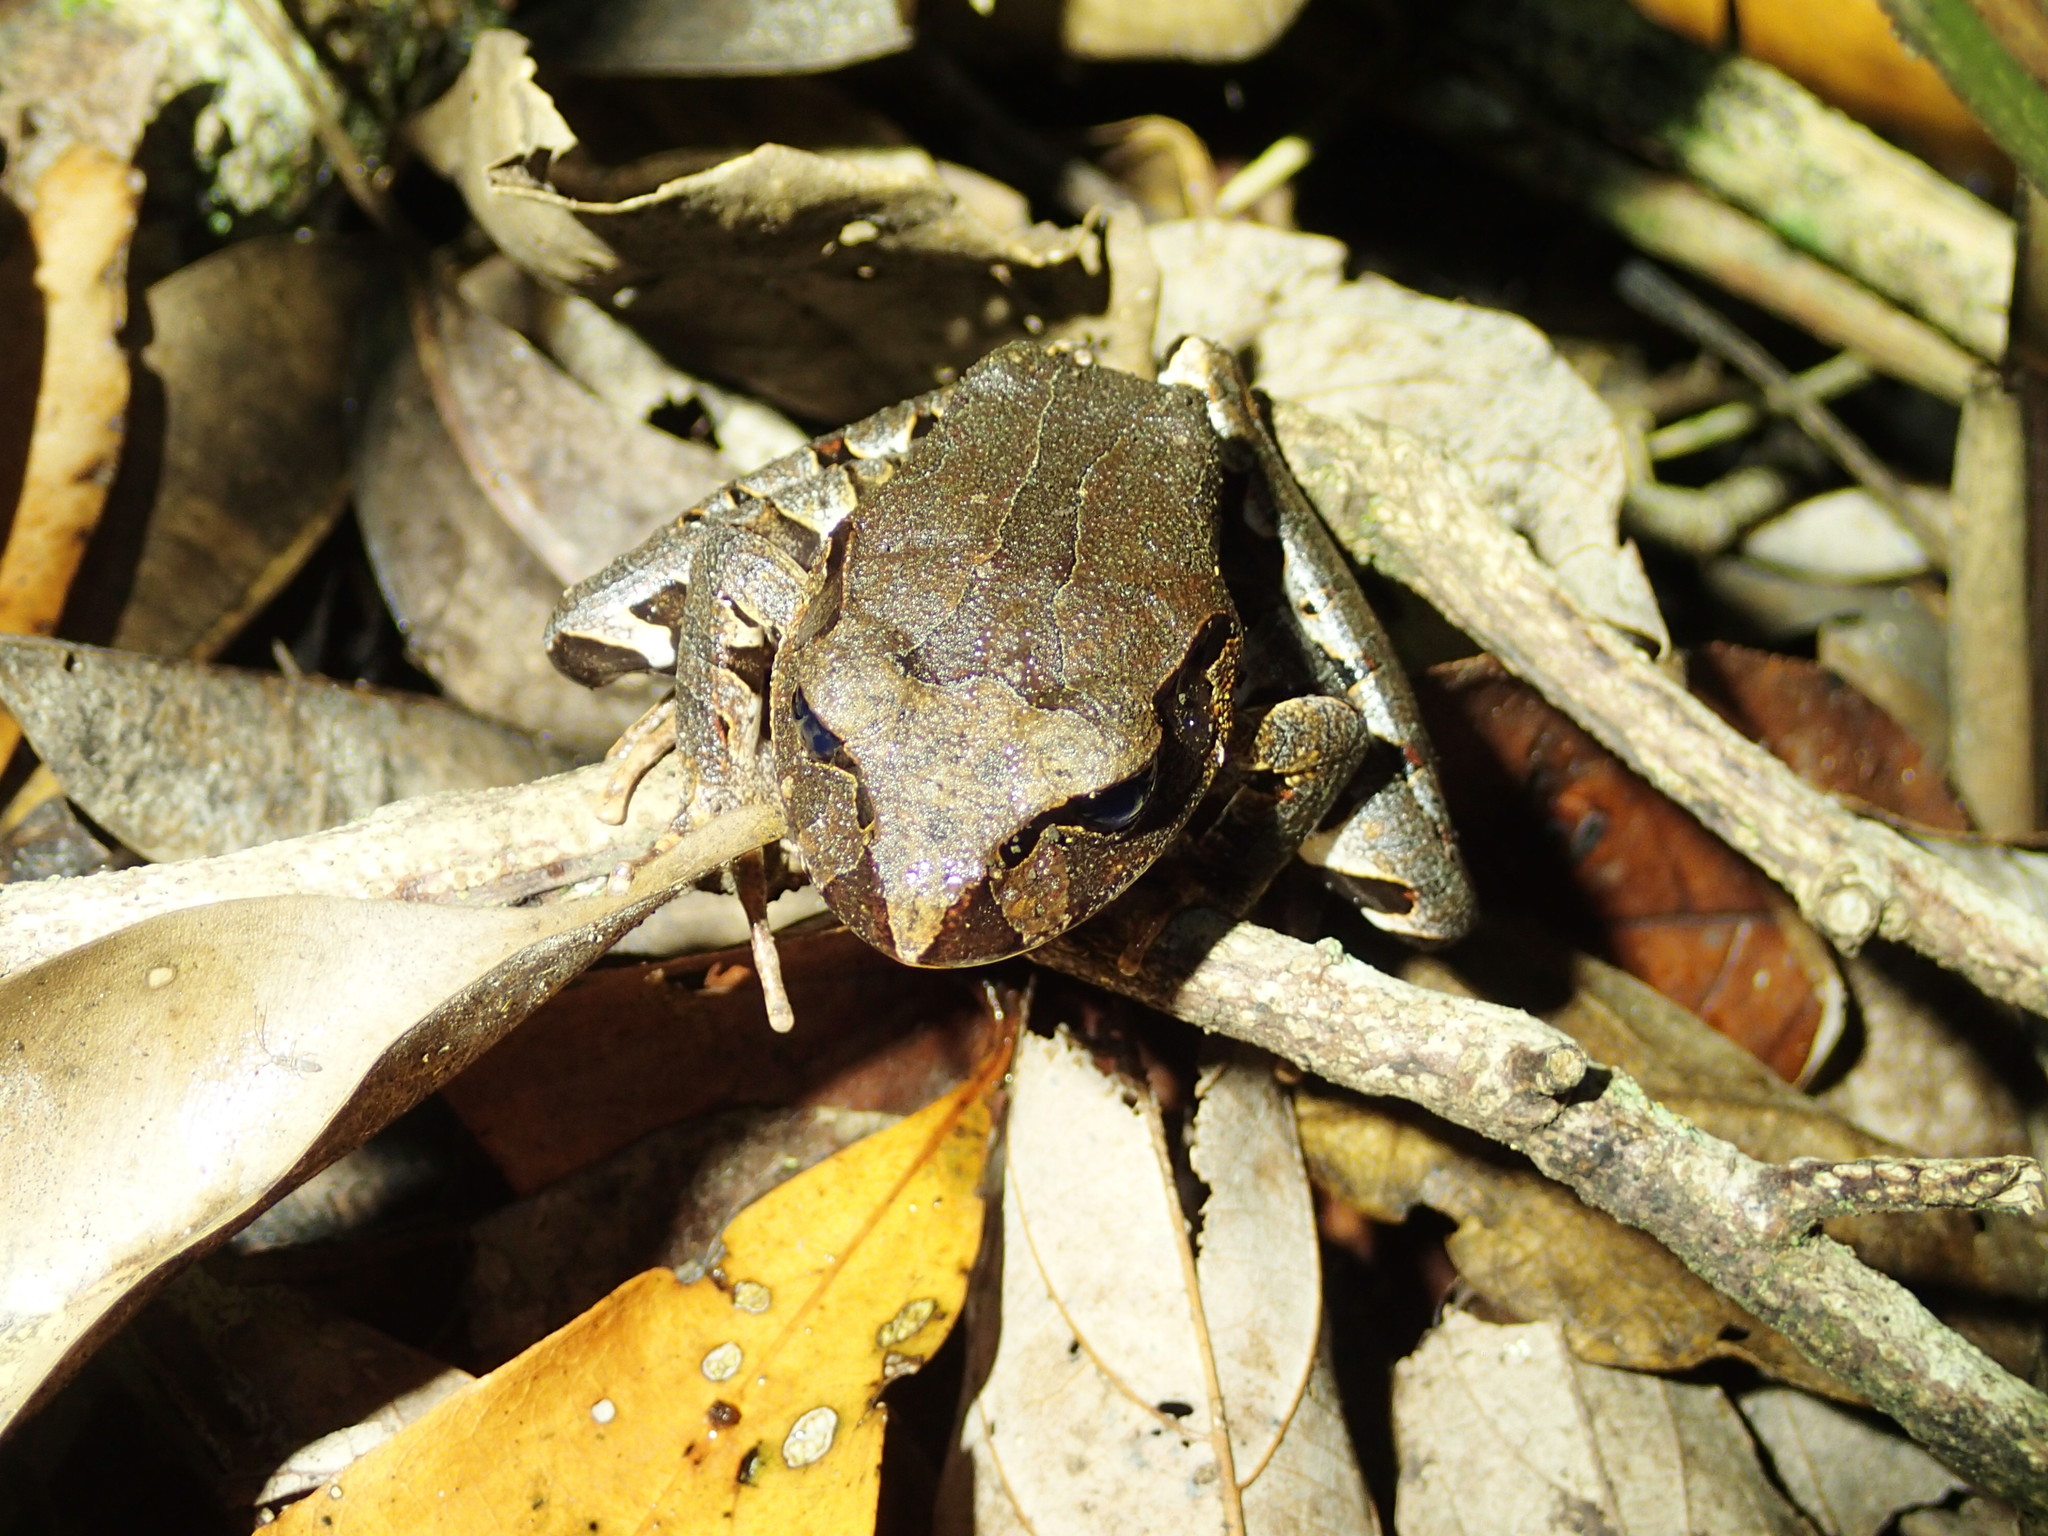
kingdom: Animalia
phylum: Chordata
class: Amphibia
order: Anura
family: Myobatrachidae
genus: Mixophyes
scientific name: Mixophyes schevilli
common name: Northern barred frog
